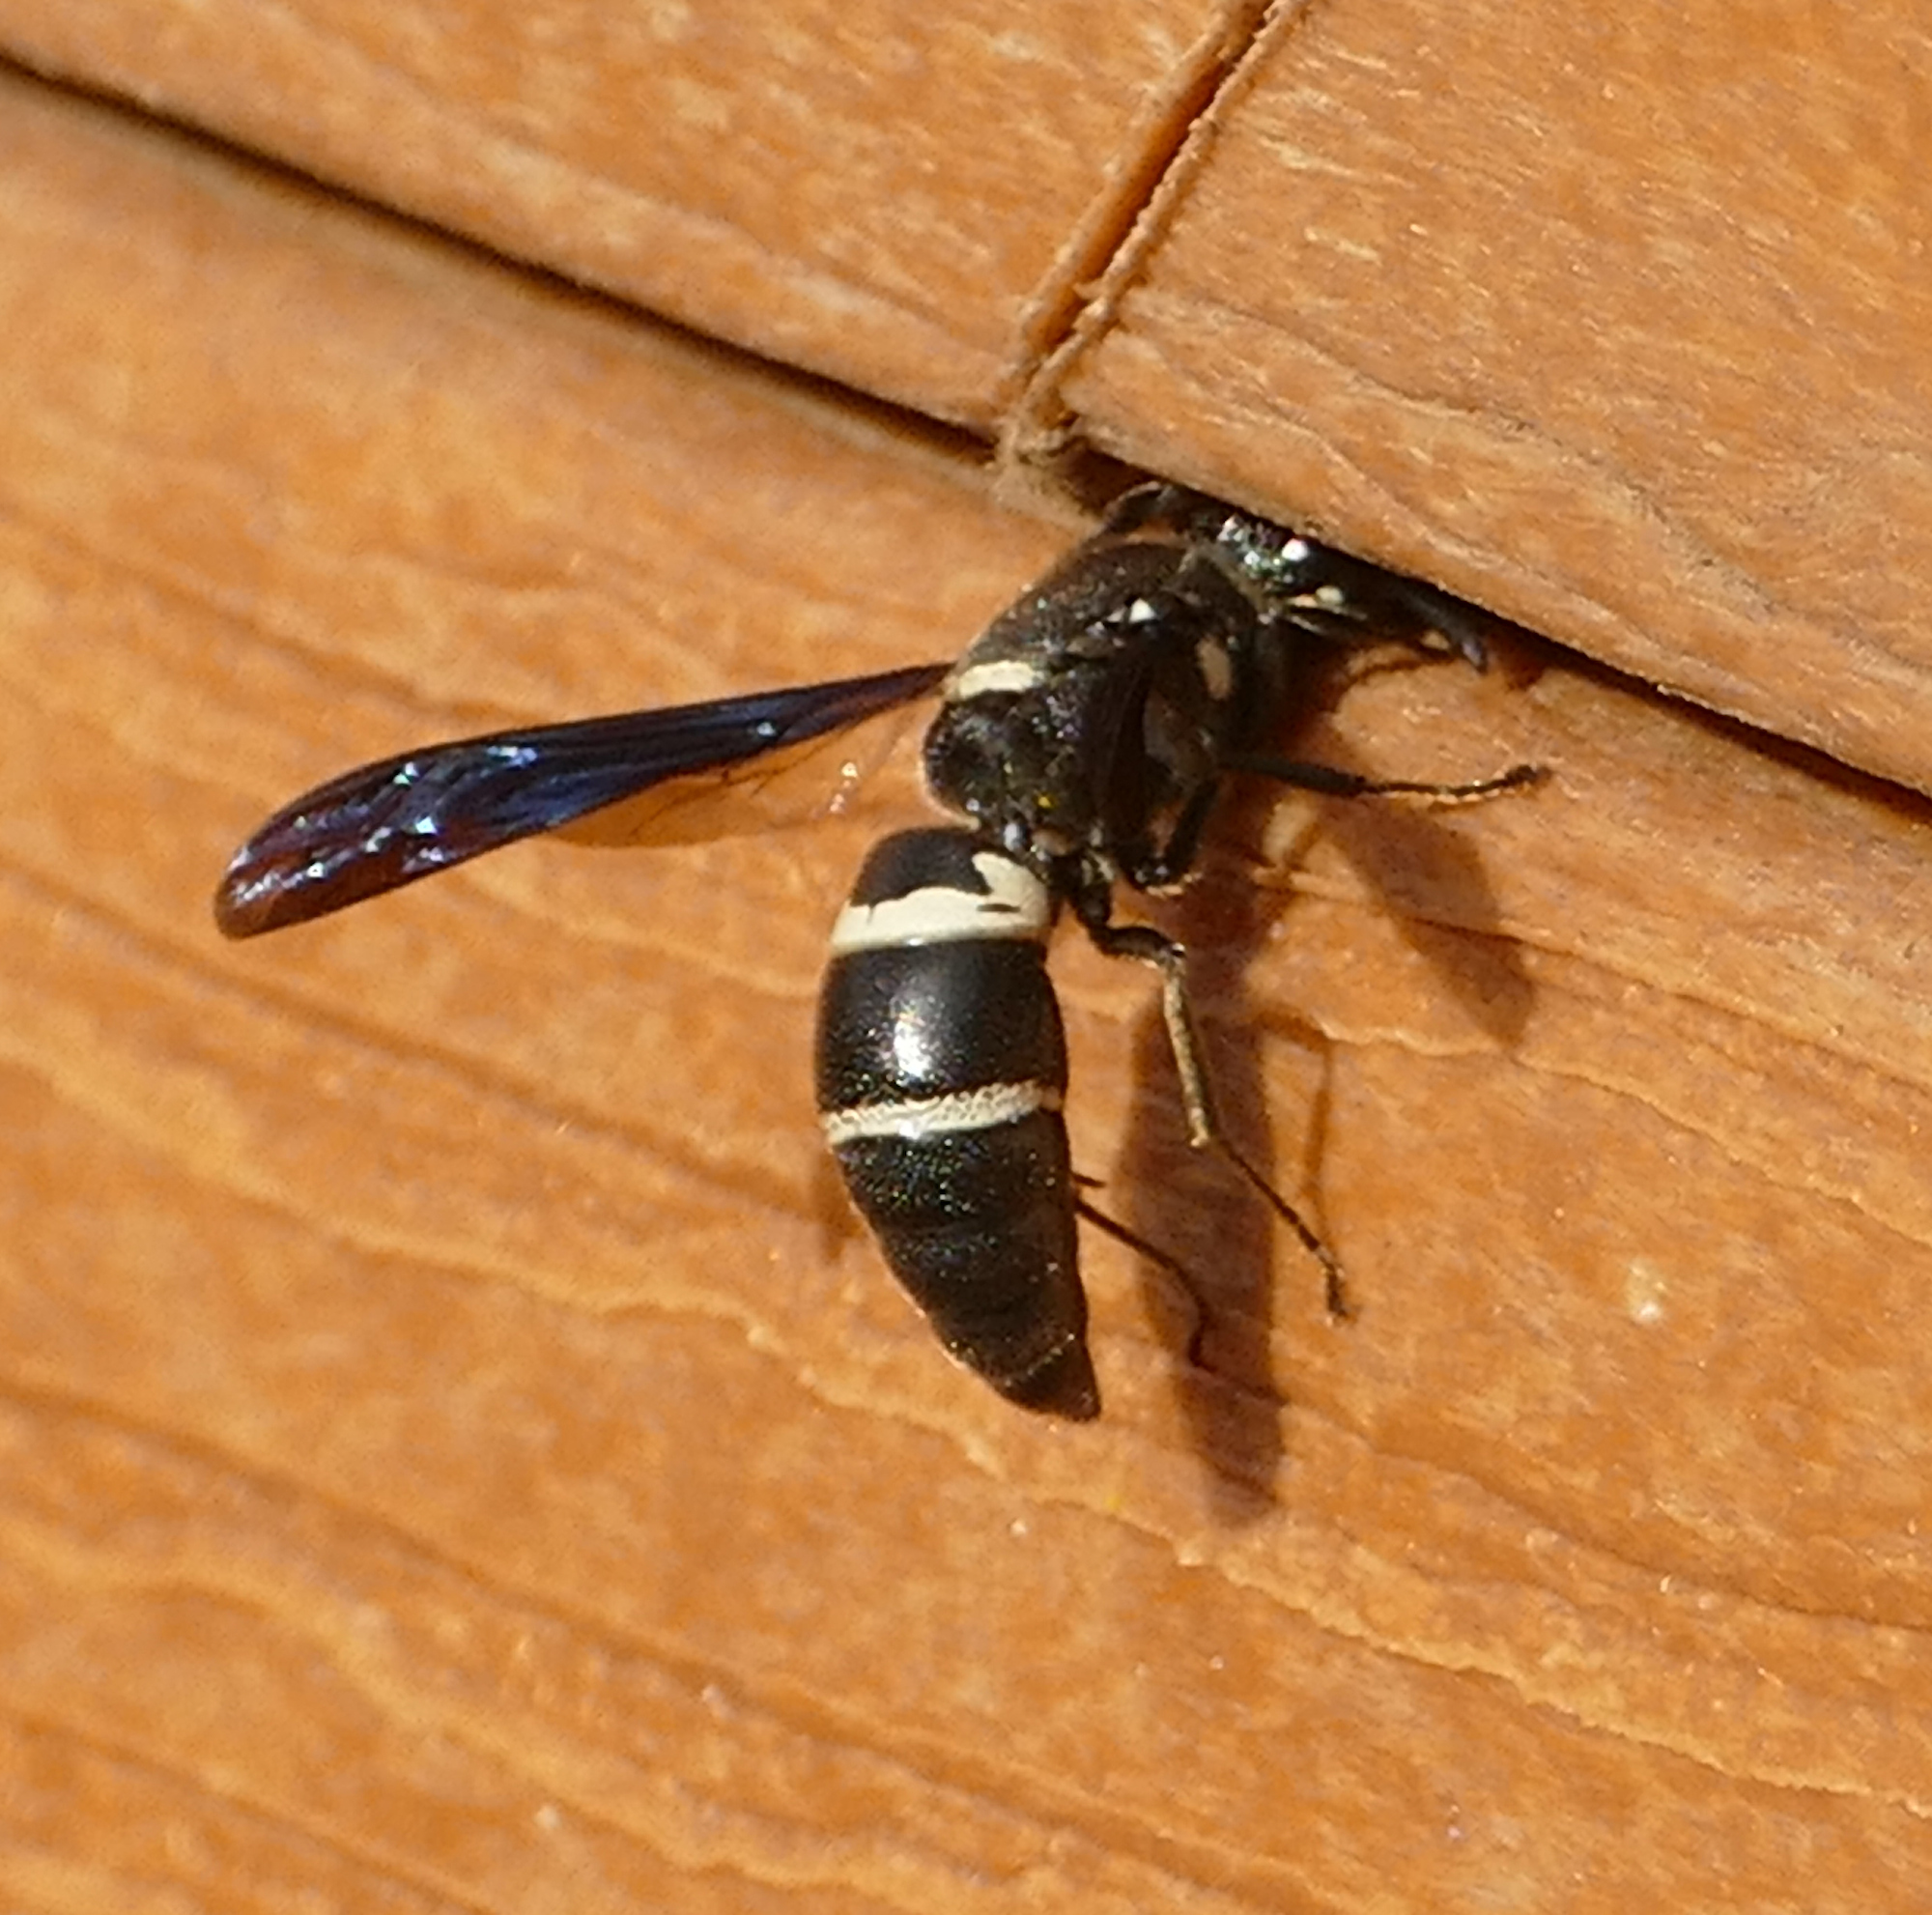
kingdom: Animalia
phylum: Arthropoda
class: Insecta
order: Hymenoptera
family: Eumenidae
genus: Euodynerus
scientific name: Euodynerus megaera
